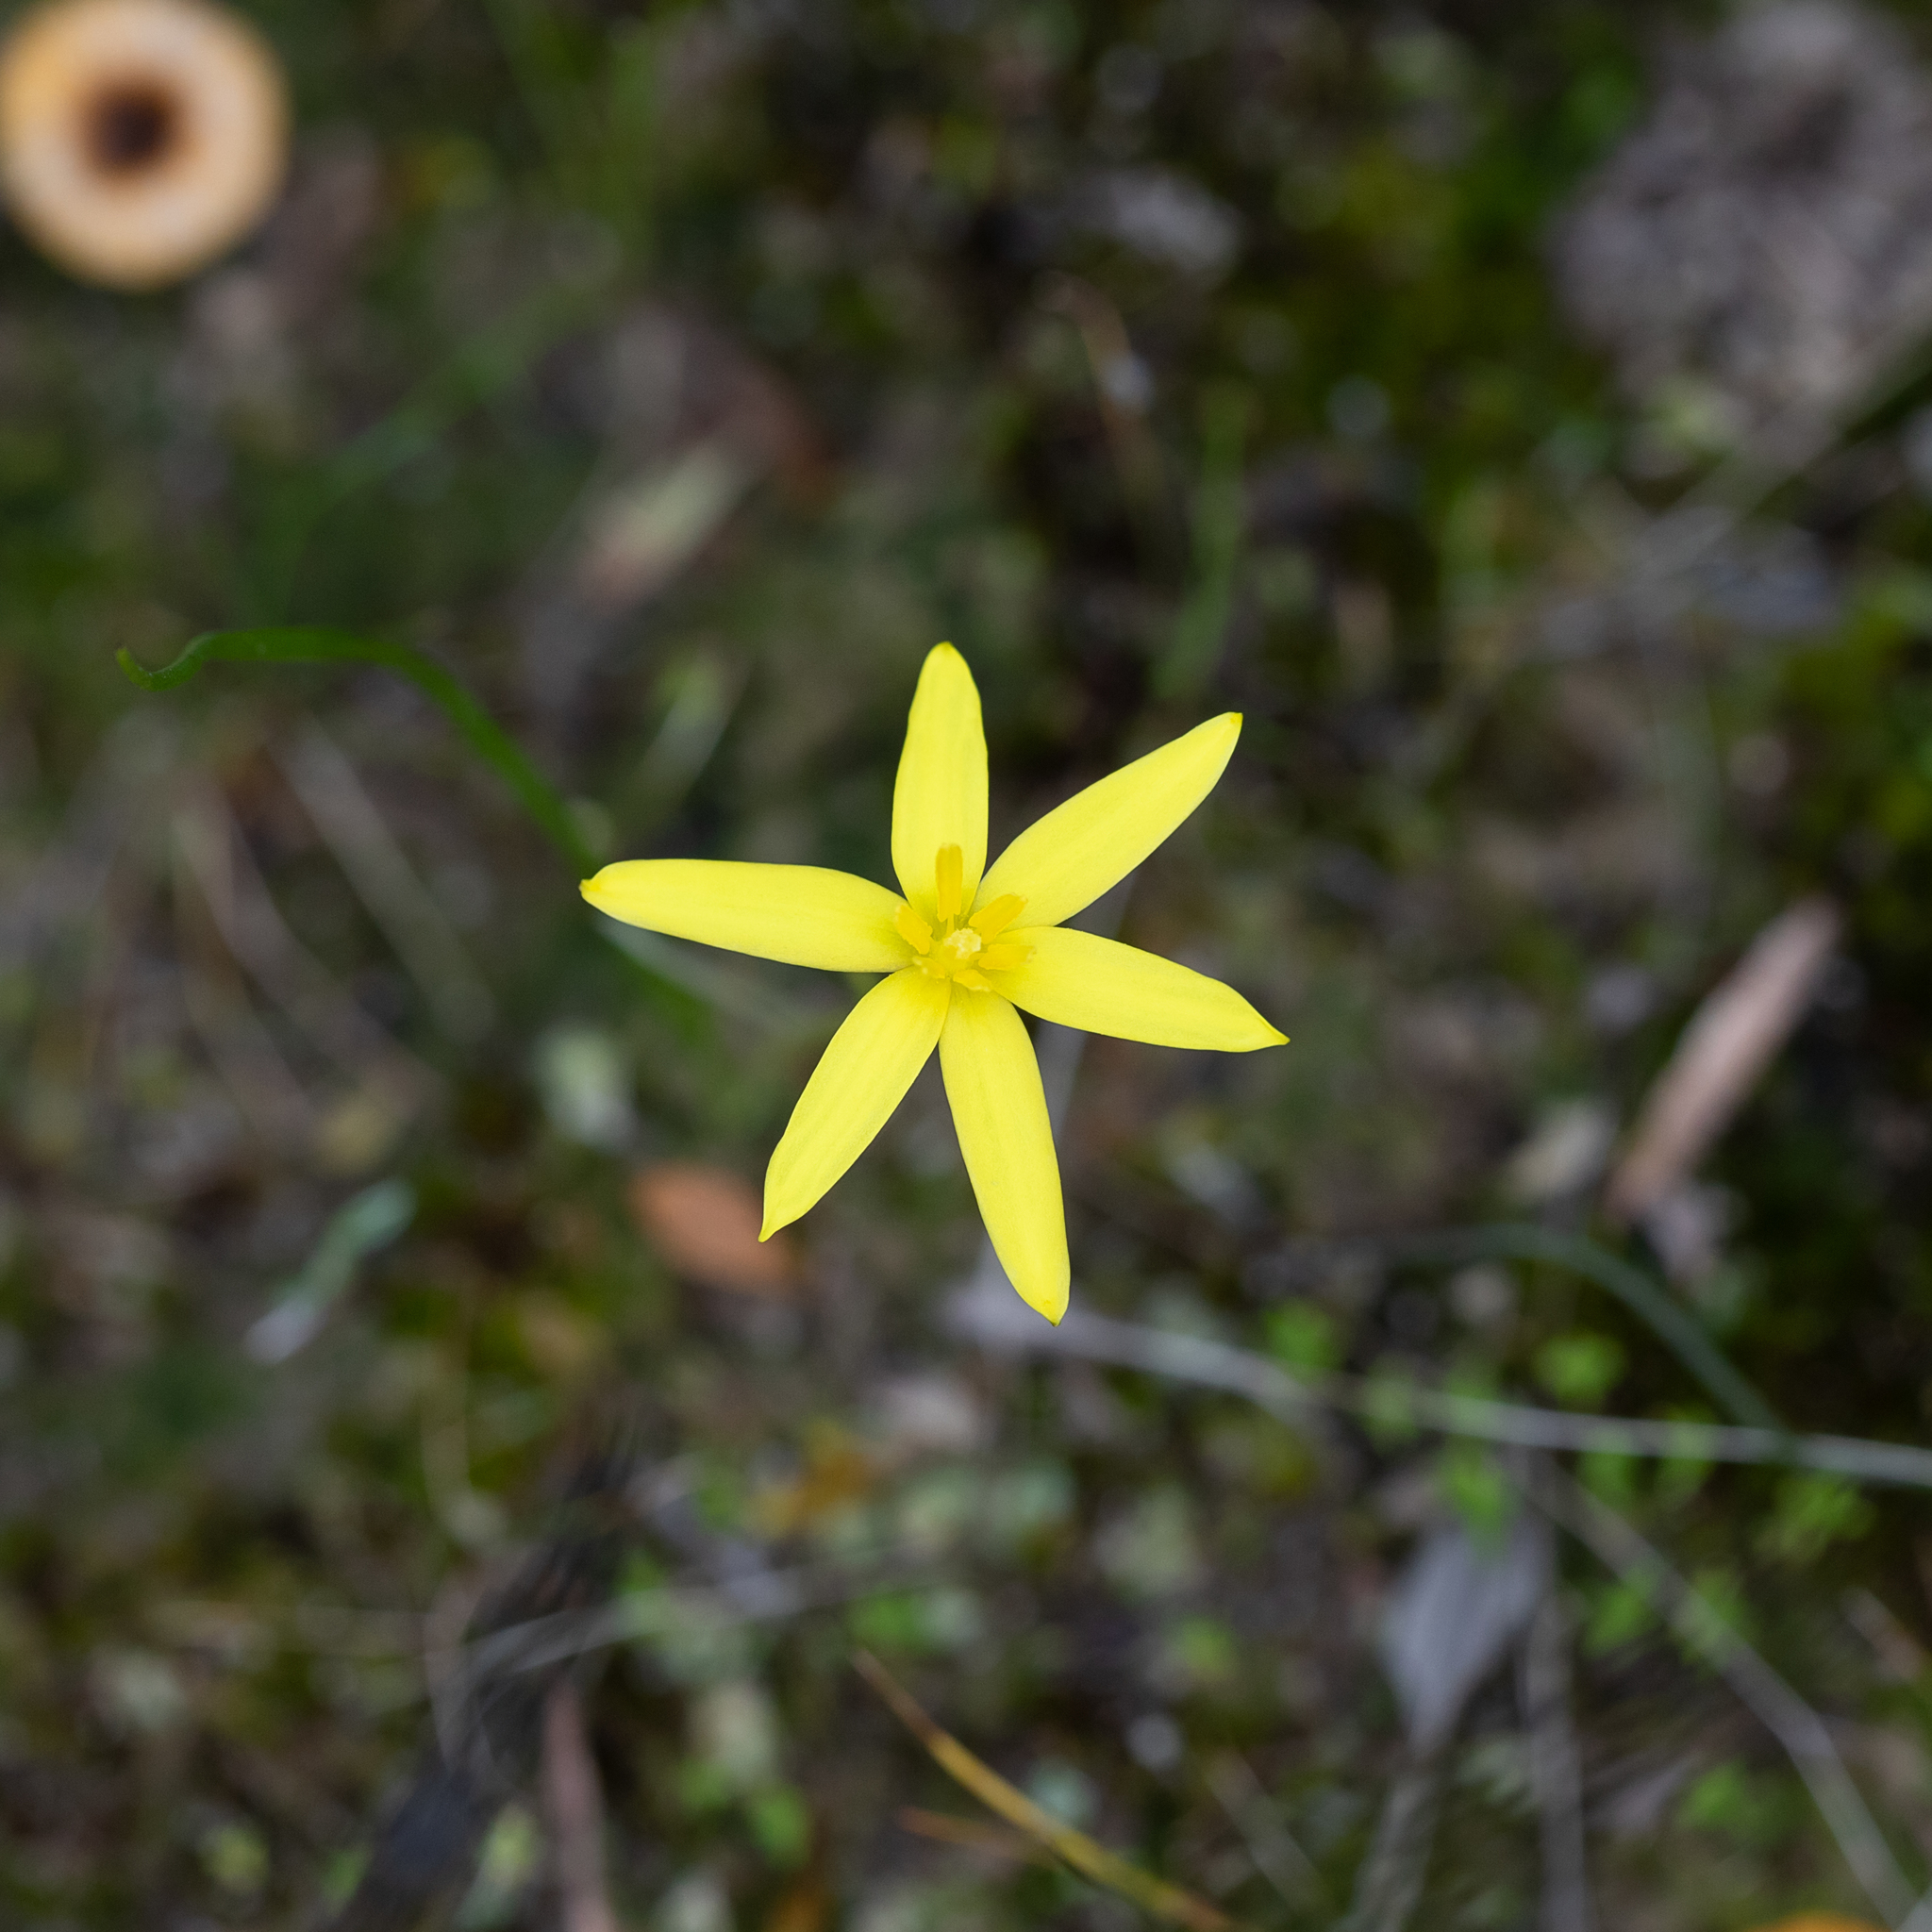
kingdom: Plantae
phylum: Tracheophyta
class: Liliopsida
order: Asparagales
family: Hypoxidaceae
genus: Pauridia
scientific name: Pauridia glabella
